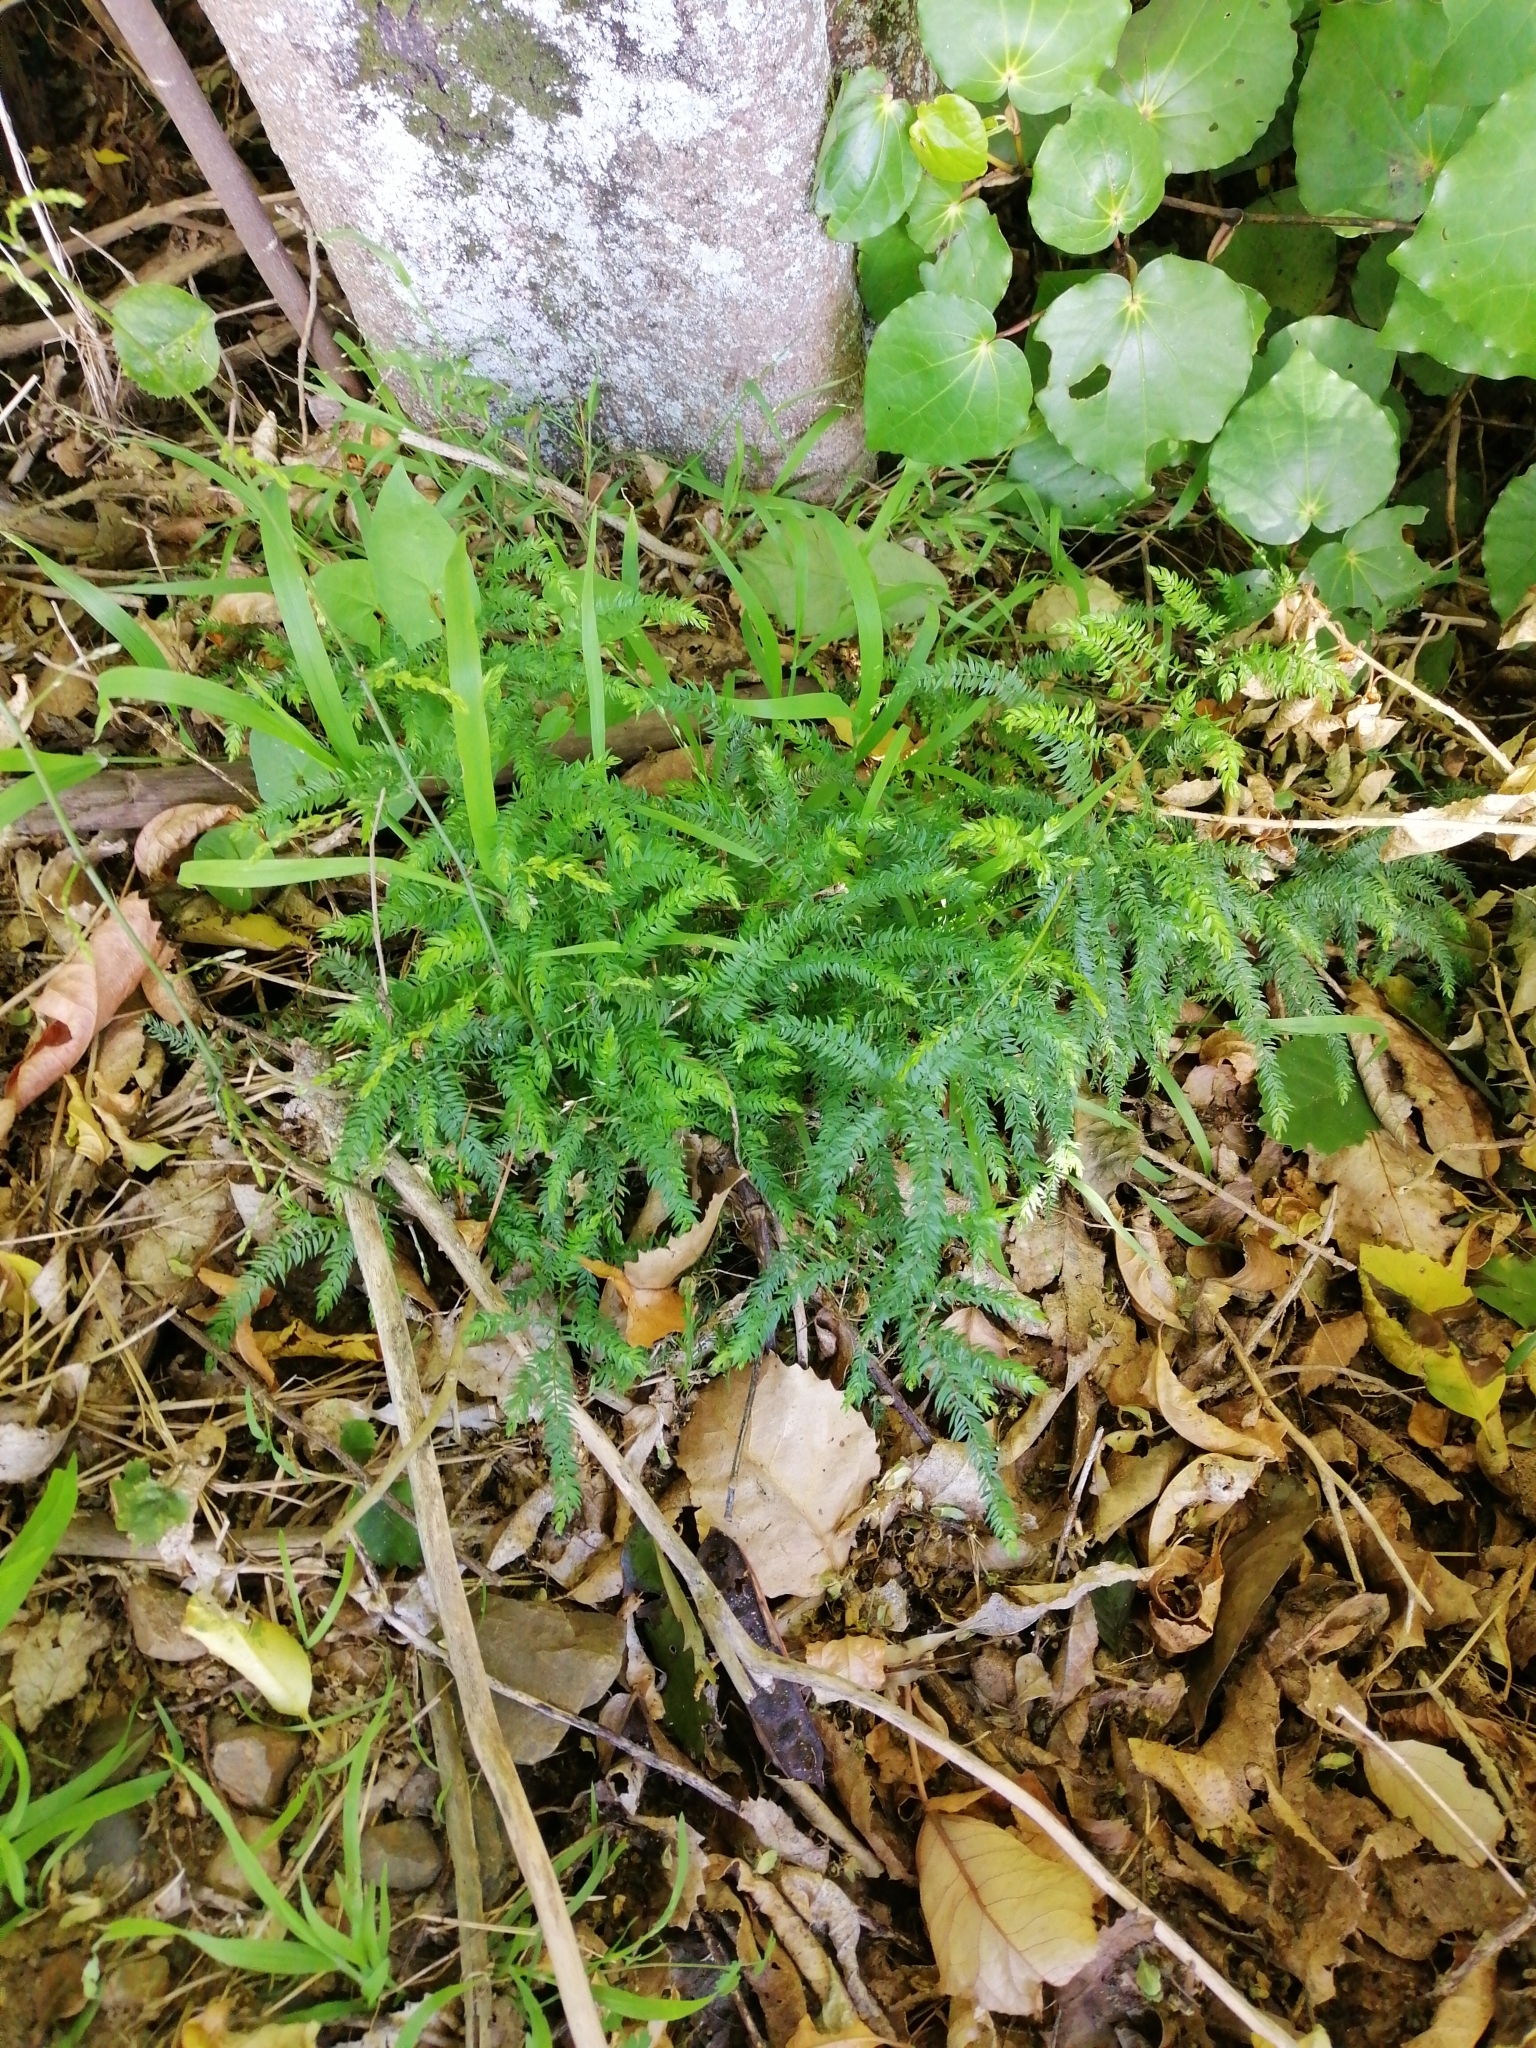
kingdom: Plantae
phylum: Tracheophyta
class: Liliopsida
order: Asparagales
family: Asparagaceae
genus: Asparagus
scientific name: Asparagus scandens
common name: Asparagus-fern
